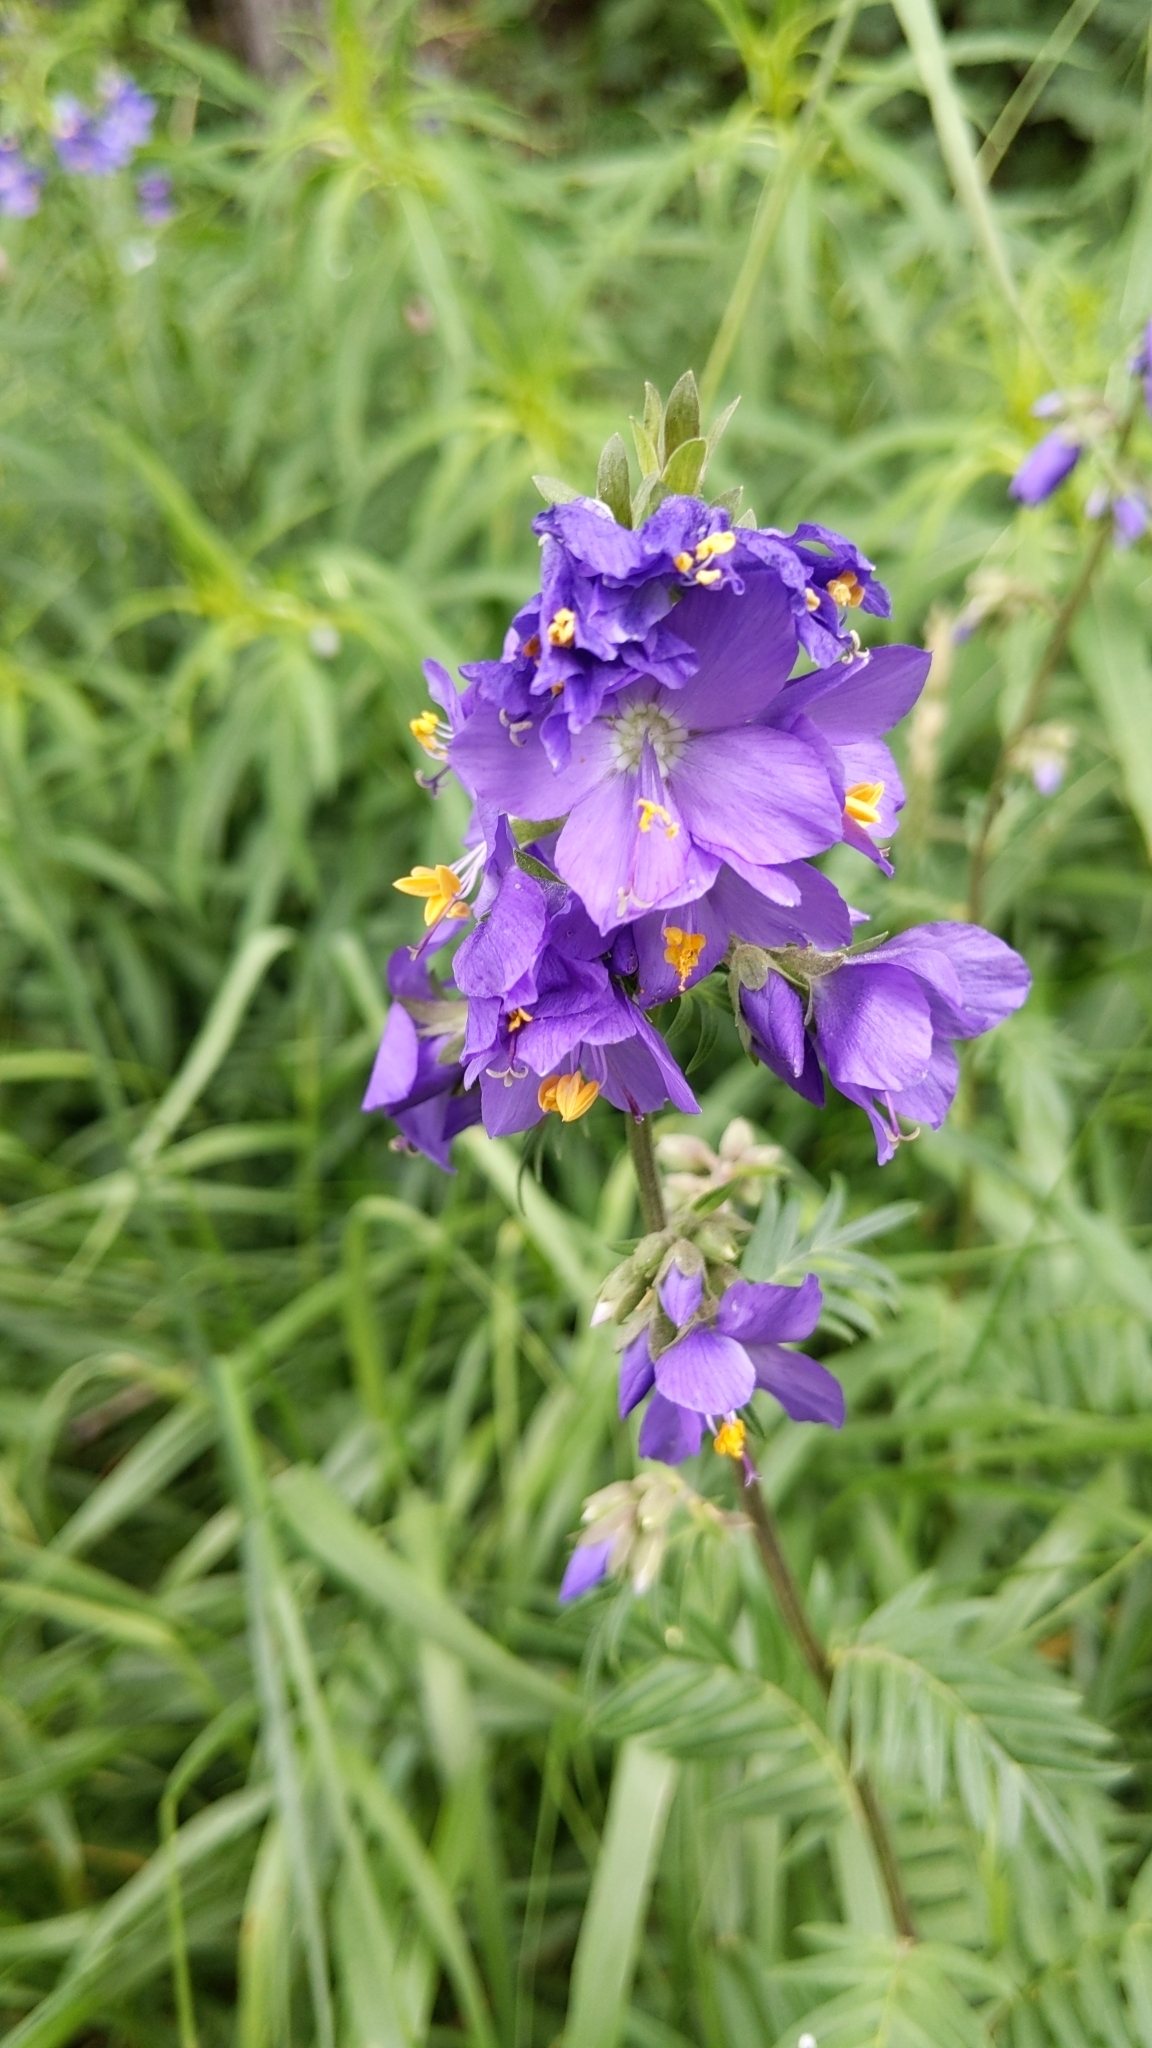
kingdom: Plantae
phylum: Tracheophyta
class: Magnoliopsida
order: Ericales
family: Polemoniaceae
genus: Polemonium
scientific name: Polemonium caeruleum
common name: Jacob's-ladder
